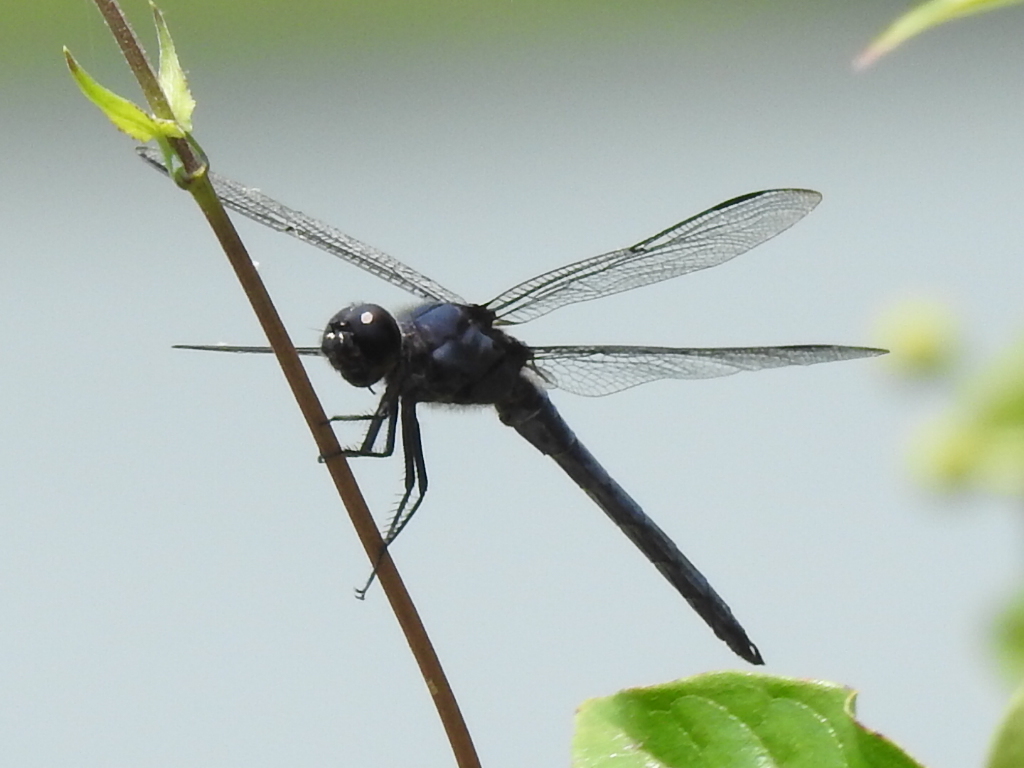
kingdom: Animalia
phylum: Arthropoda
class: Insecta
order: Odonata
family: Libellulidae
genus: Libellula
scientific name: Libellula incesta
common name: Slaty skimmer
